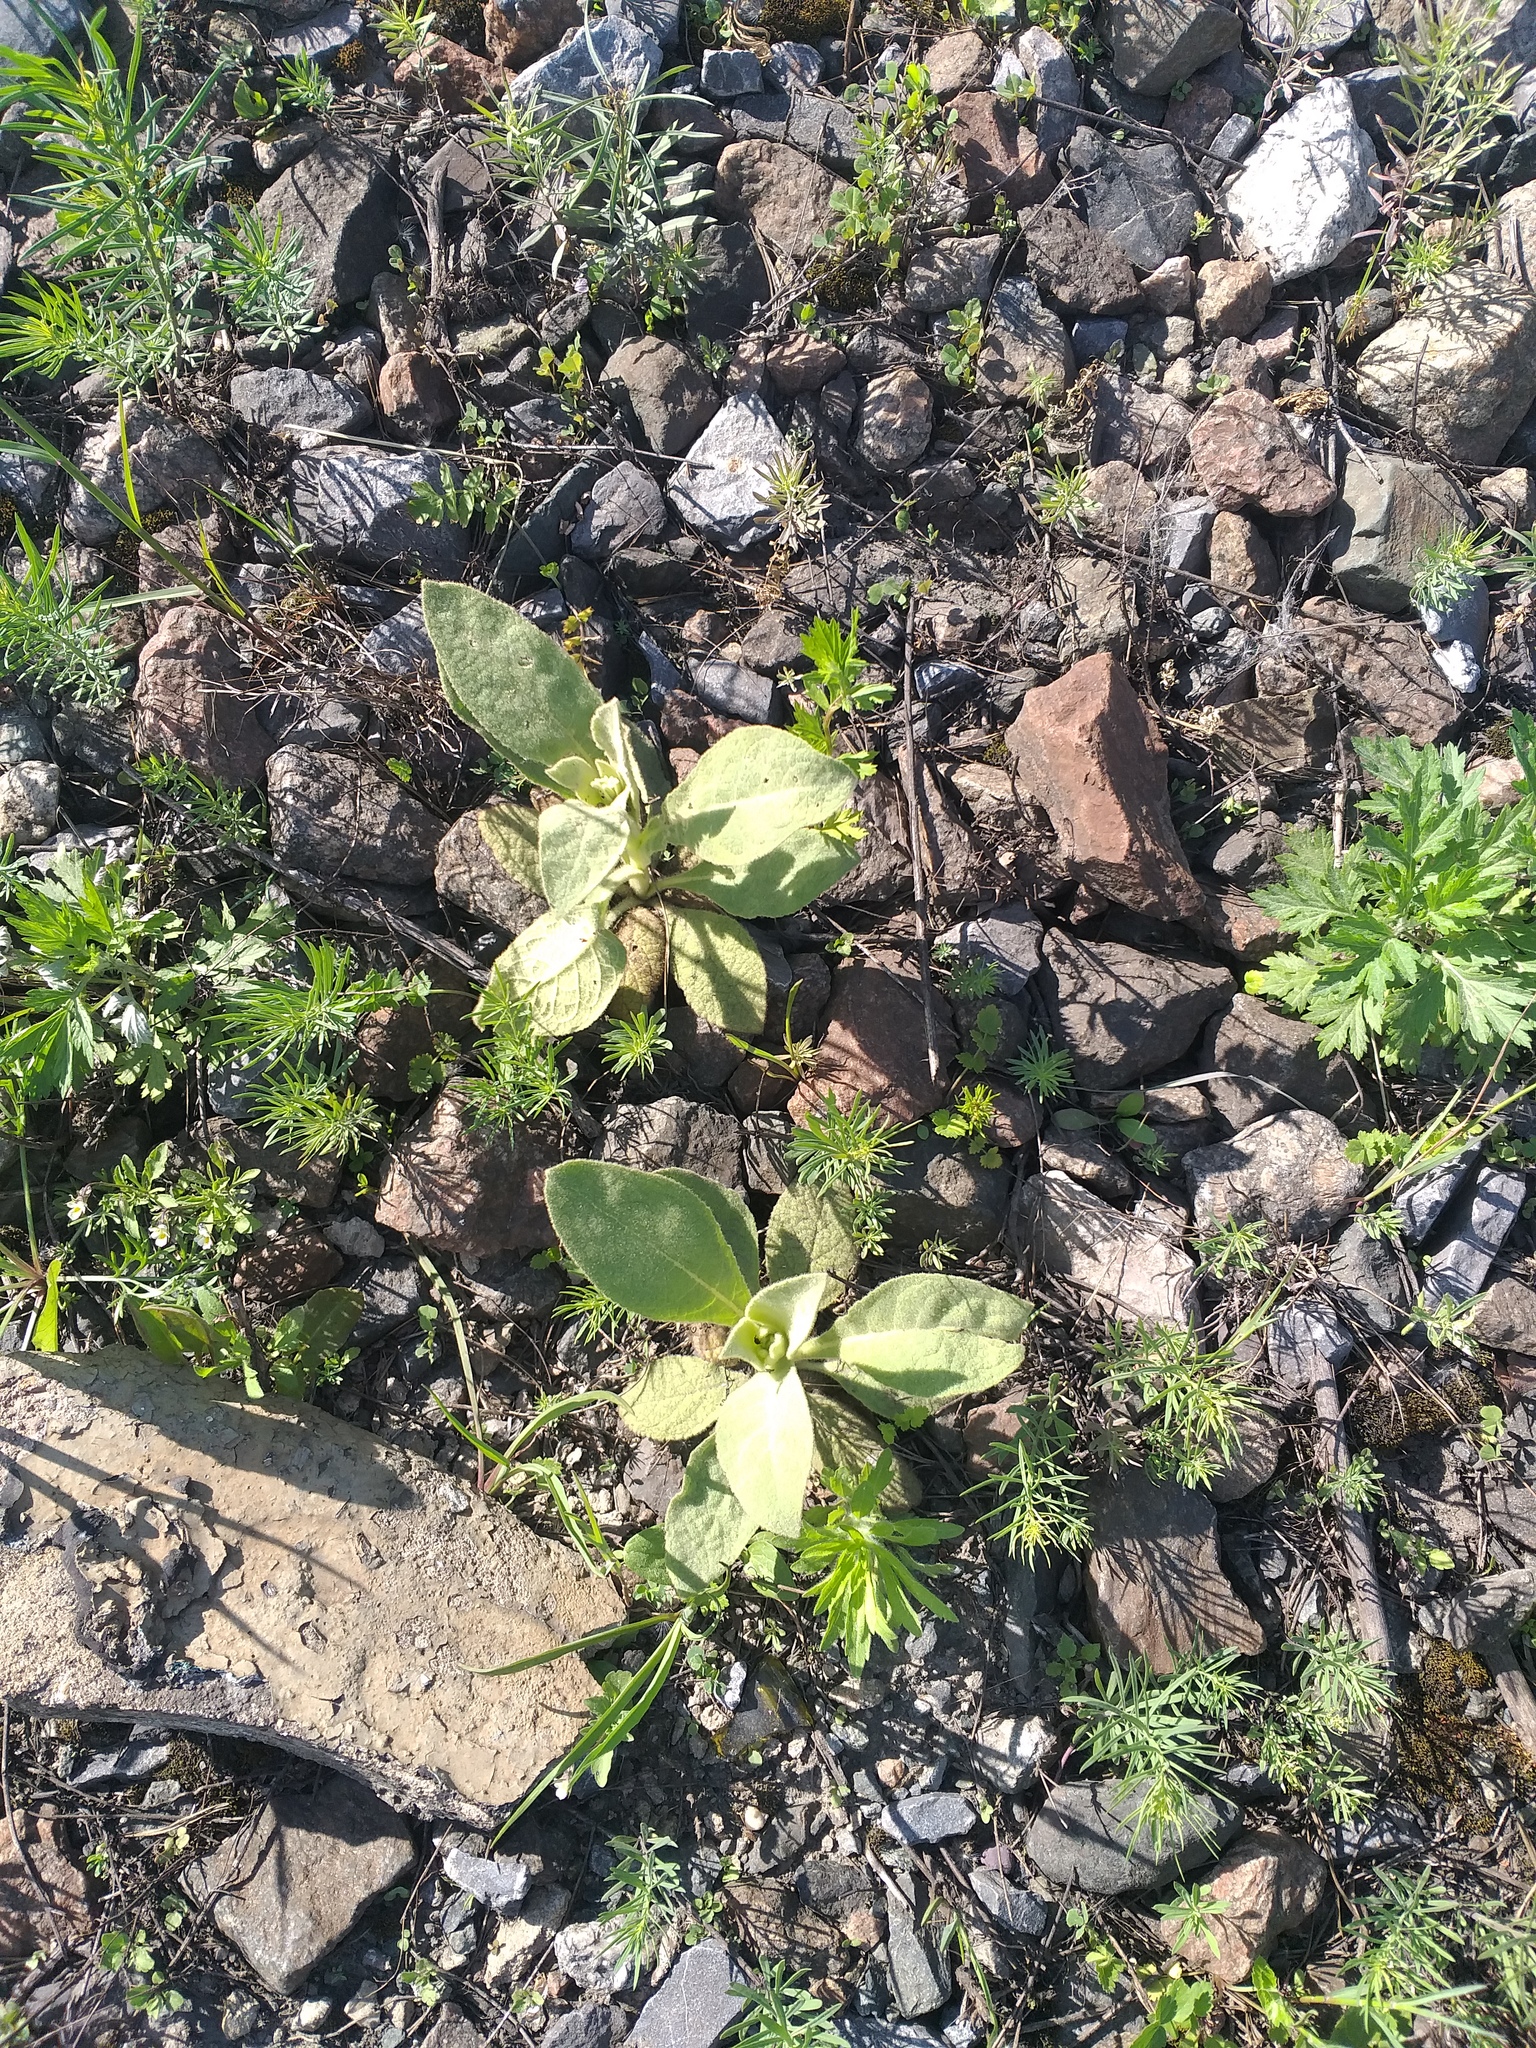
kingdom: Plantae
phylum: Tracheophyta
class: Magnoliopsida
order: Lamiales
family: Scrophulariaceae
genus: Verbascum
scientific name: Verbascum thapsus
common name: Common mullein
